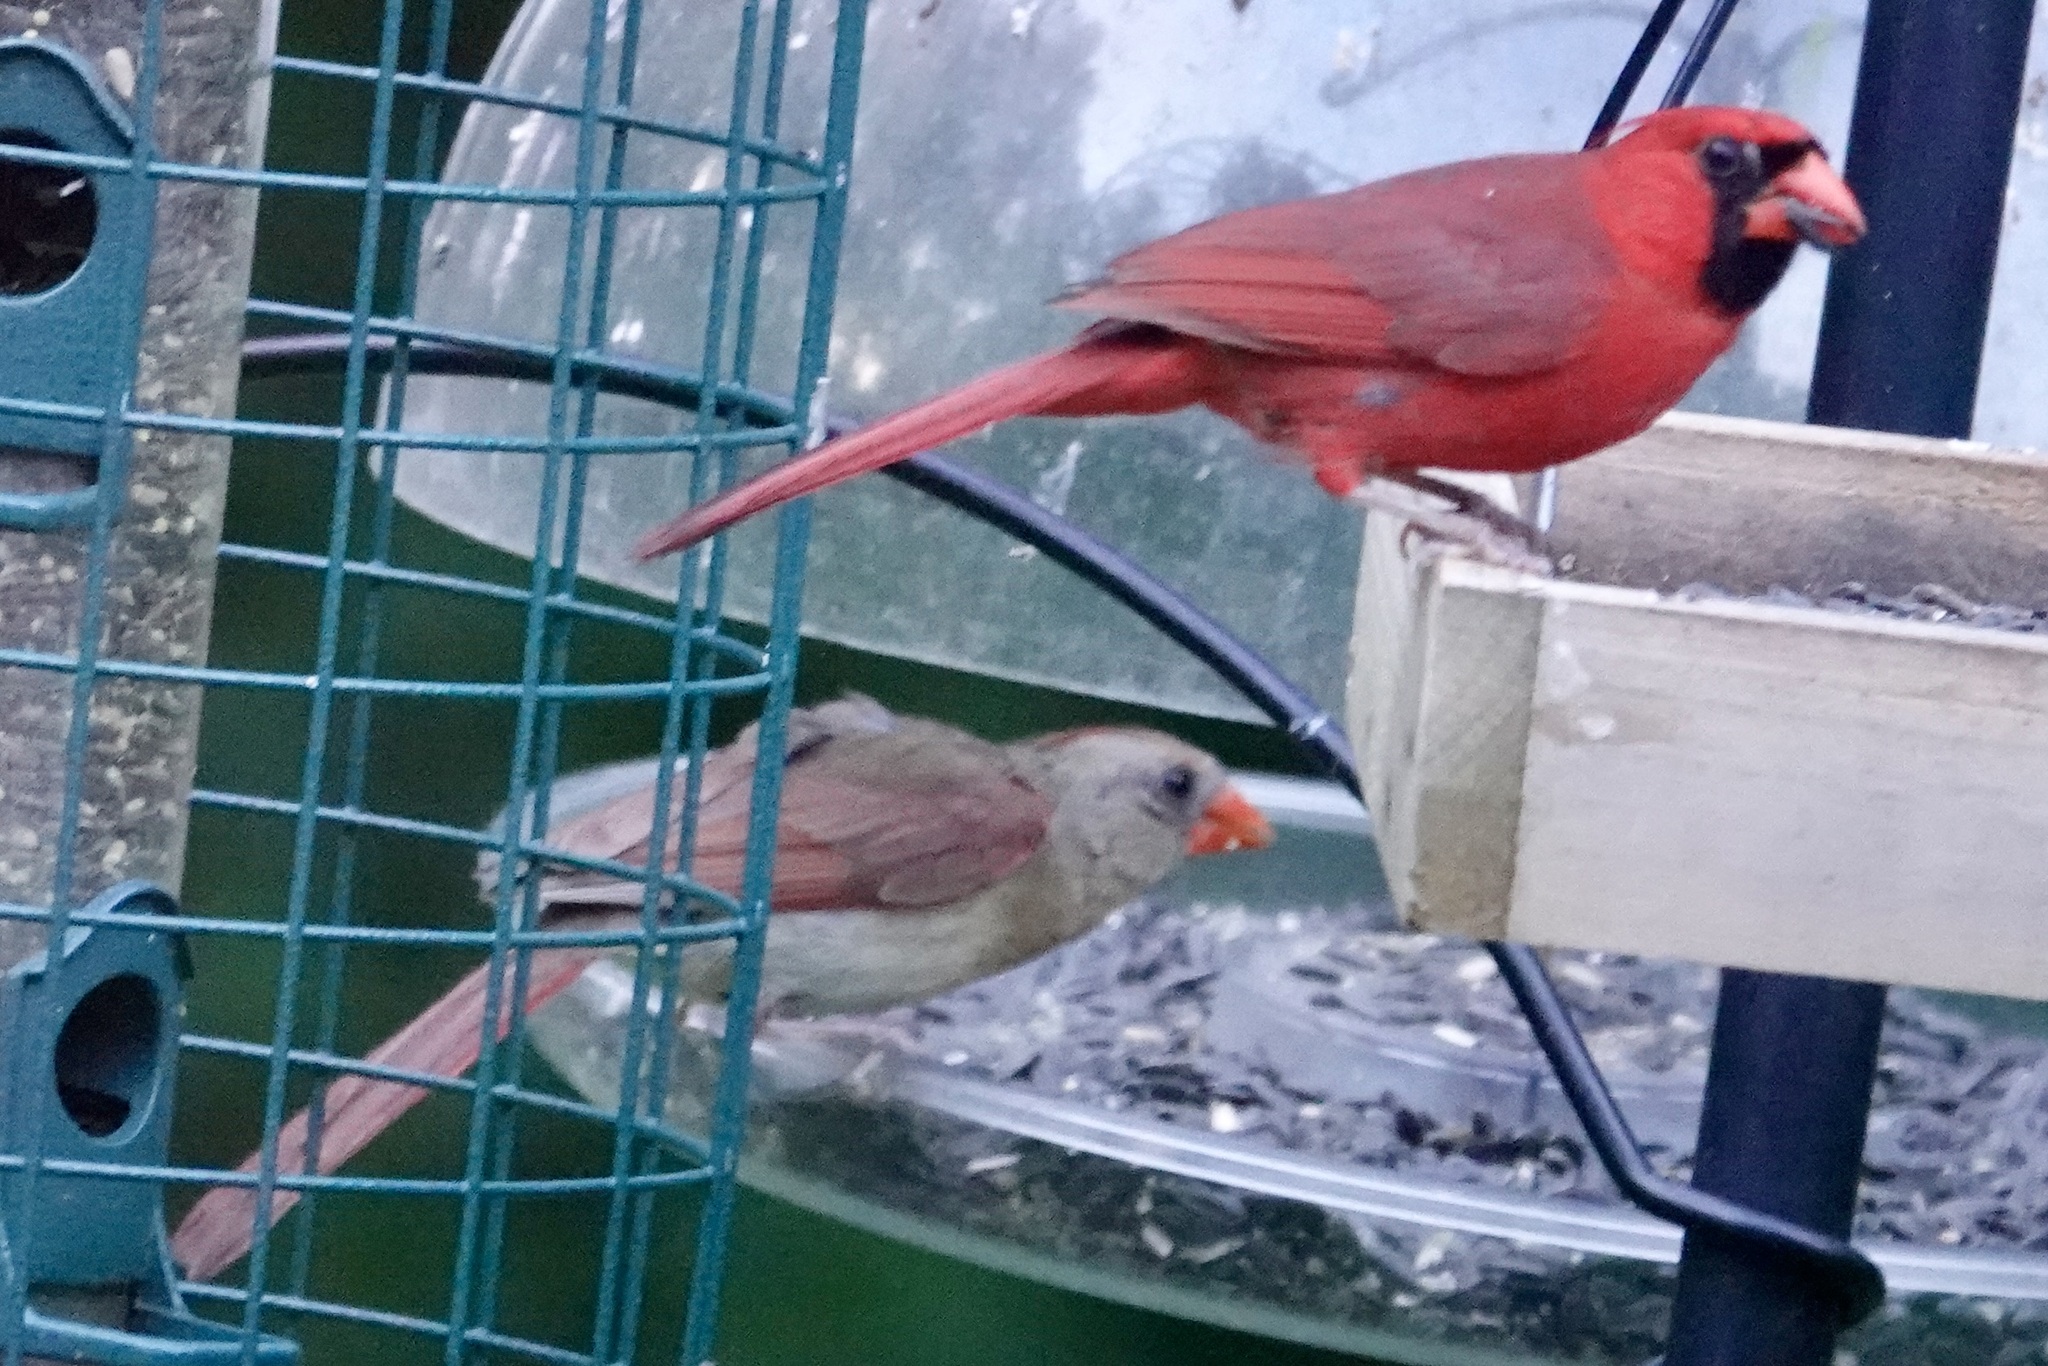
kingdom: Animalia
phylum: Chordata
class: Aves
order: Passeriformes
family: Cardinalidae
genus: Cardinalis
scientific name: Cardinalis cardinalis
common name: Northern cardinal
